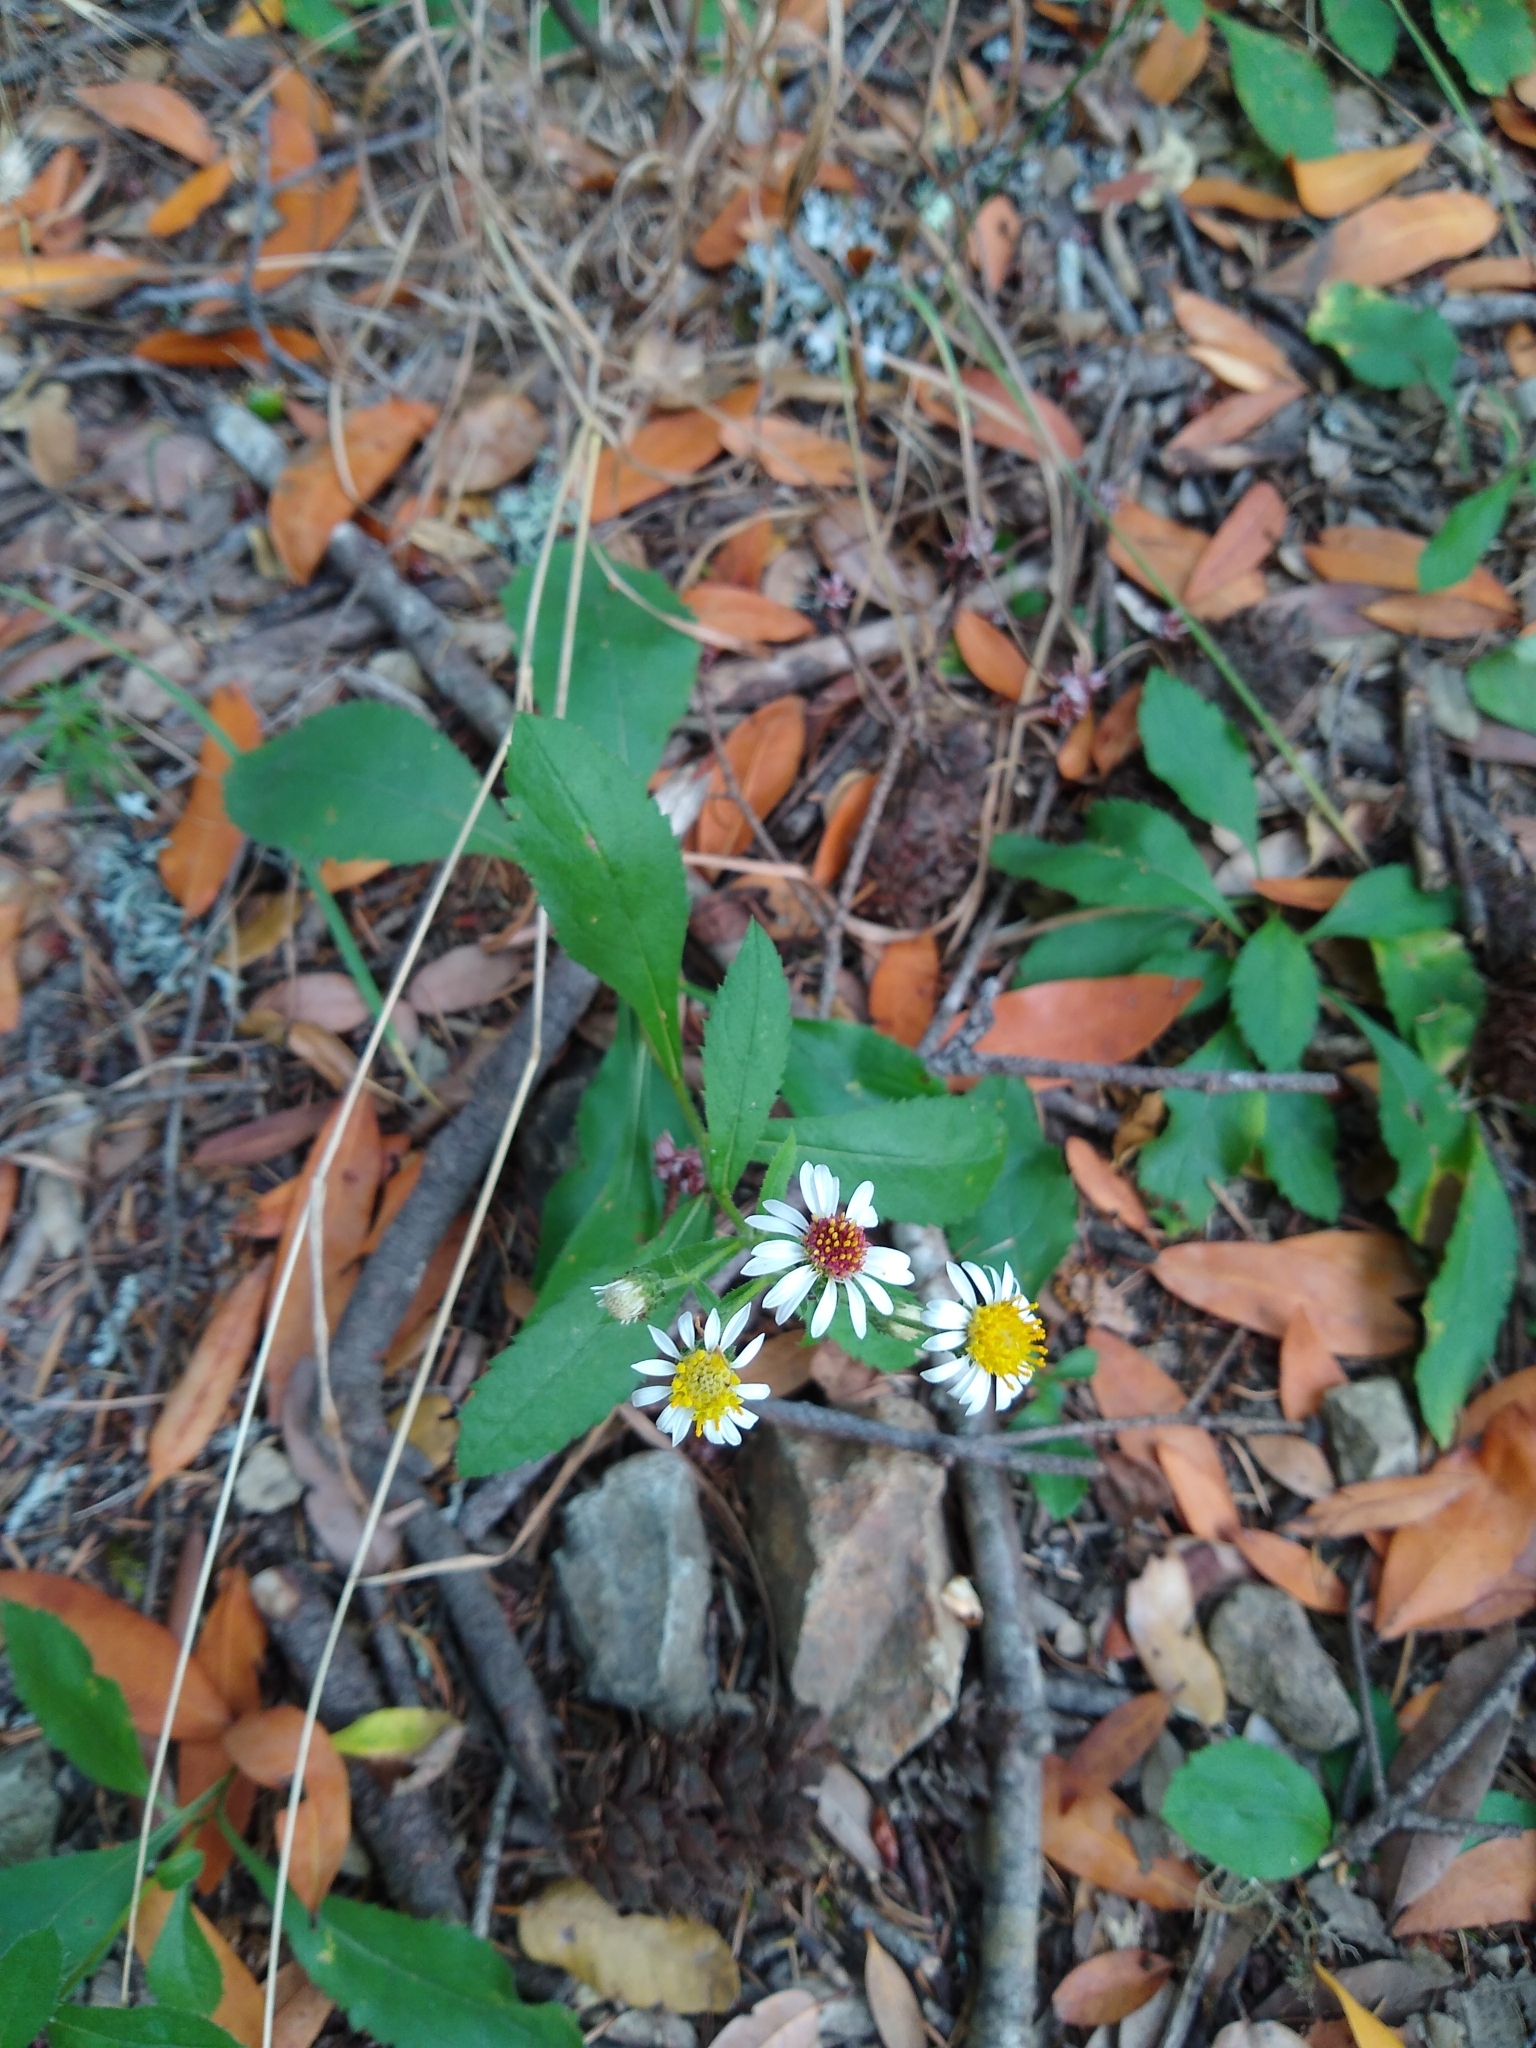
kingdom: Plantae
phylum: Tracheophyta
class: Magnoliopsida
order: Asterales
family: Asteraceae
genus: Eurybia
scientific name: Eurybia radulina
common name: Rough-leaved aster
